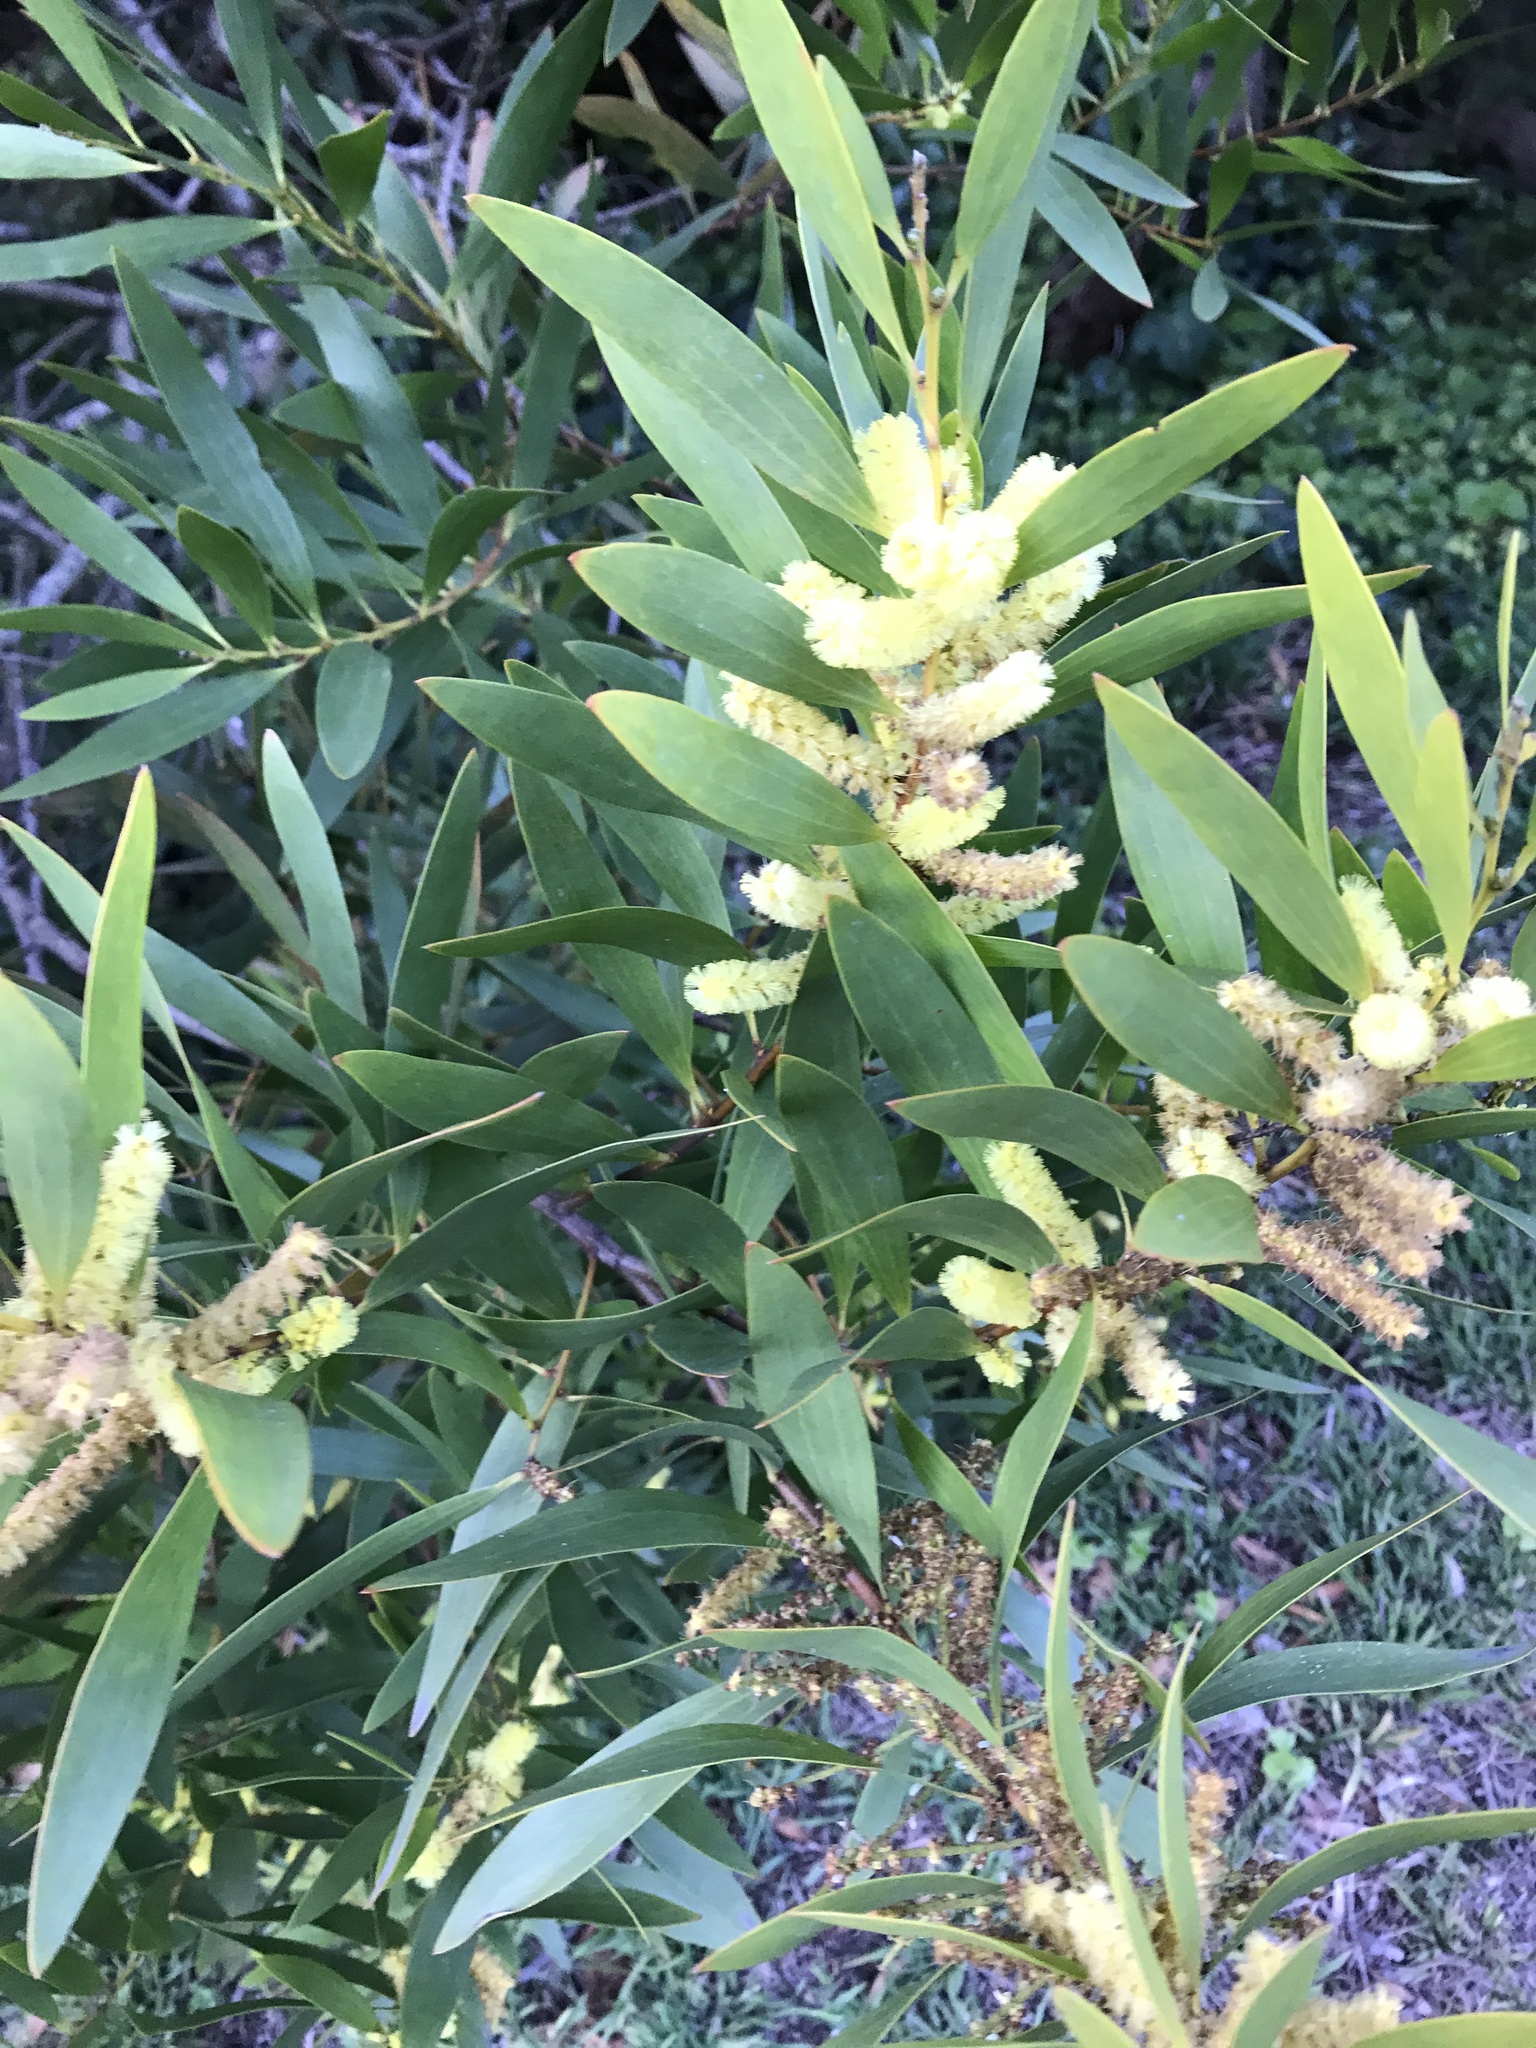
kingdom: Plantae
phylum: Tracheophyta
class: Magnoliopsida
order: Fabales
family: Fabaceae
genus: Acacia
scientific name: Acacia longifolia
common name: Sydney golden wattle
